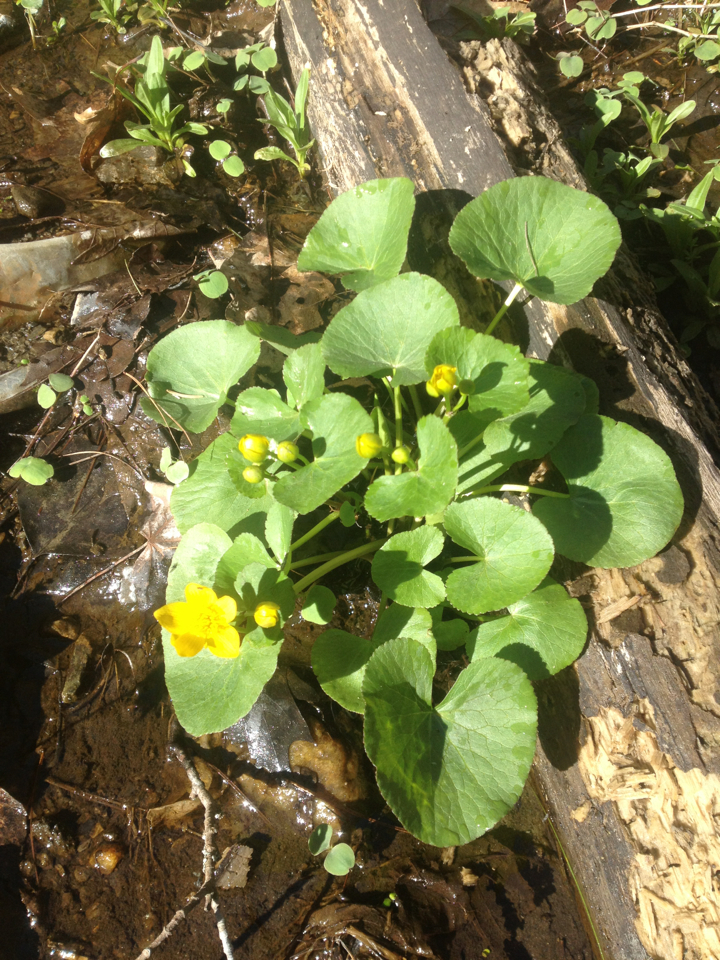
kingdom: Plantae
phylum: Tracheophyta
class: Magnoliopsida
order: Ranunculales
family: Ranunculaceae
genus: Caltha
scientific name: Caltha palustris
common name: Marsh marigold
